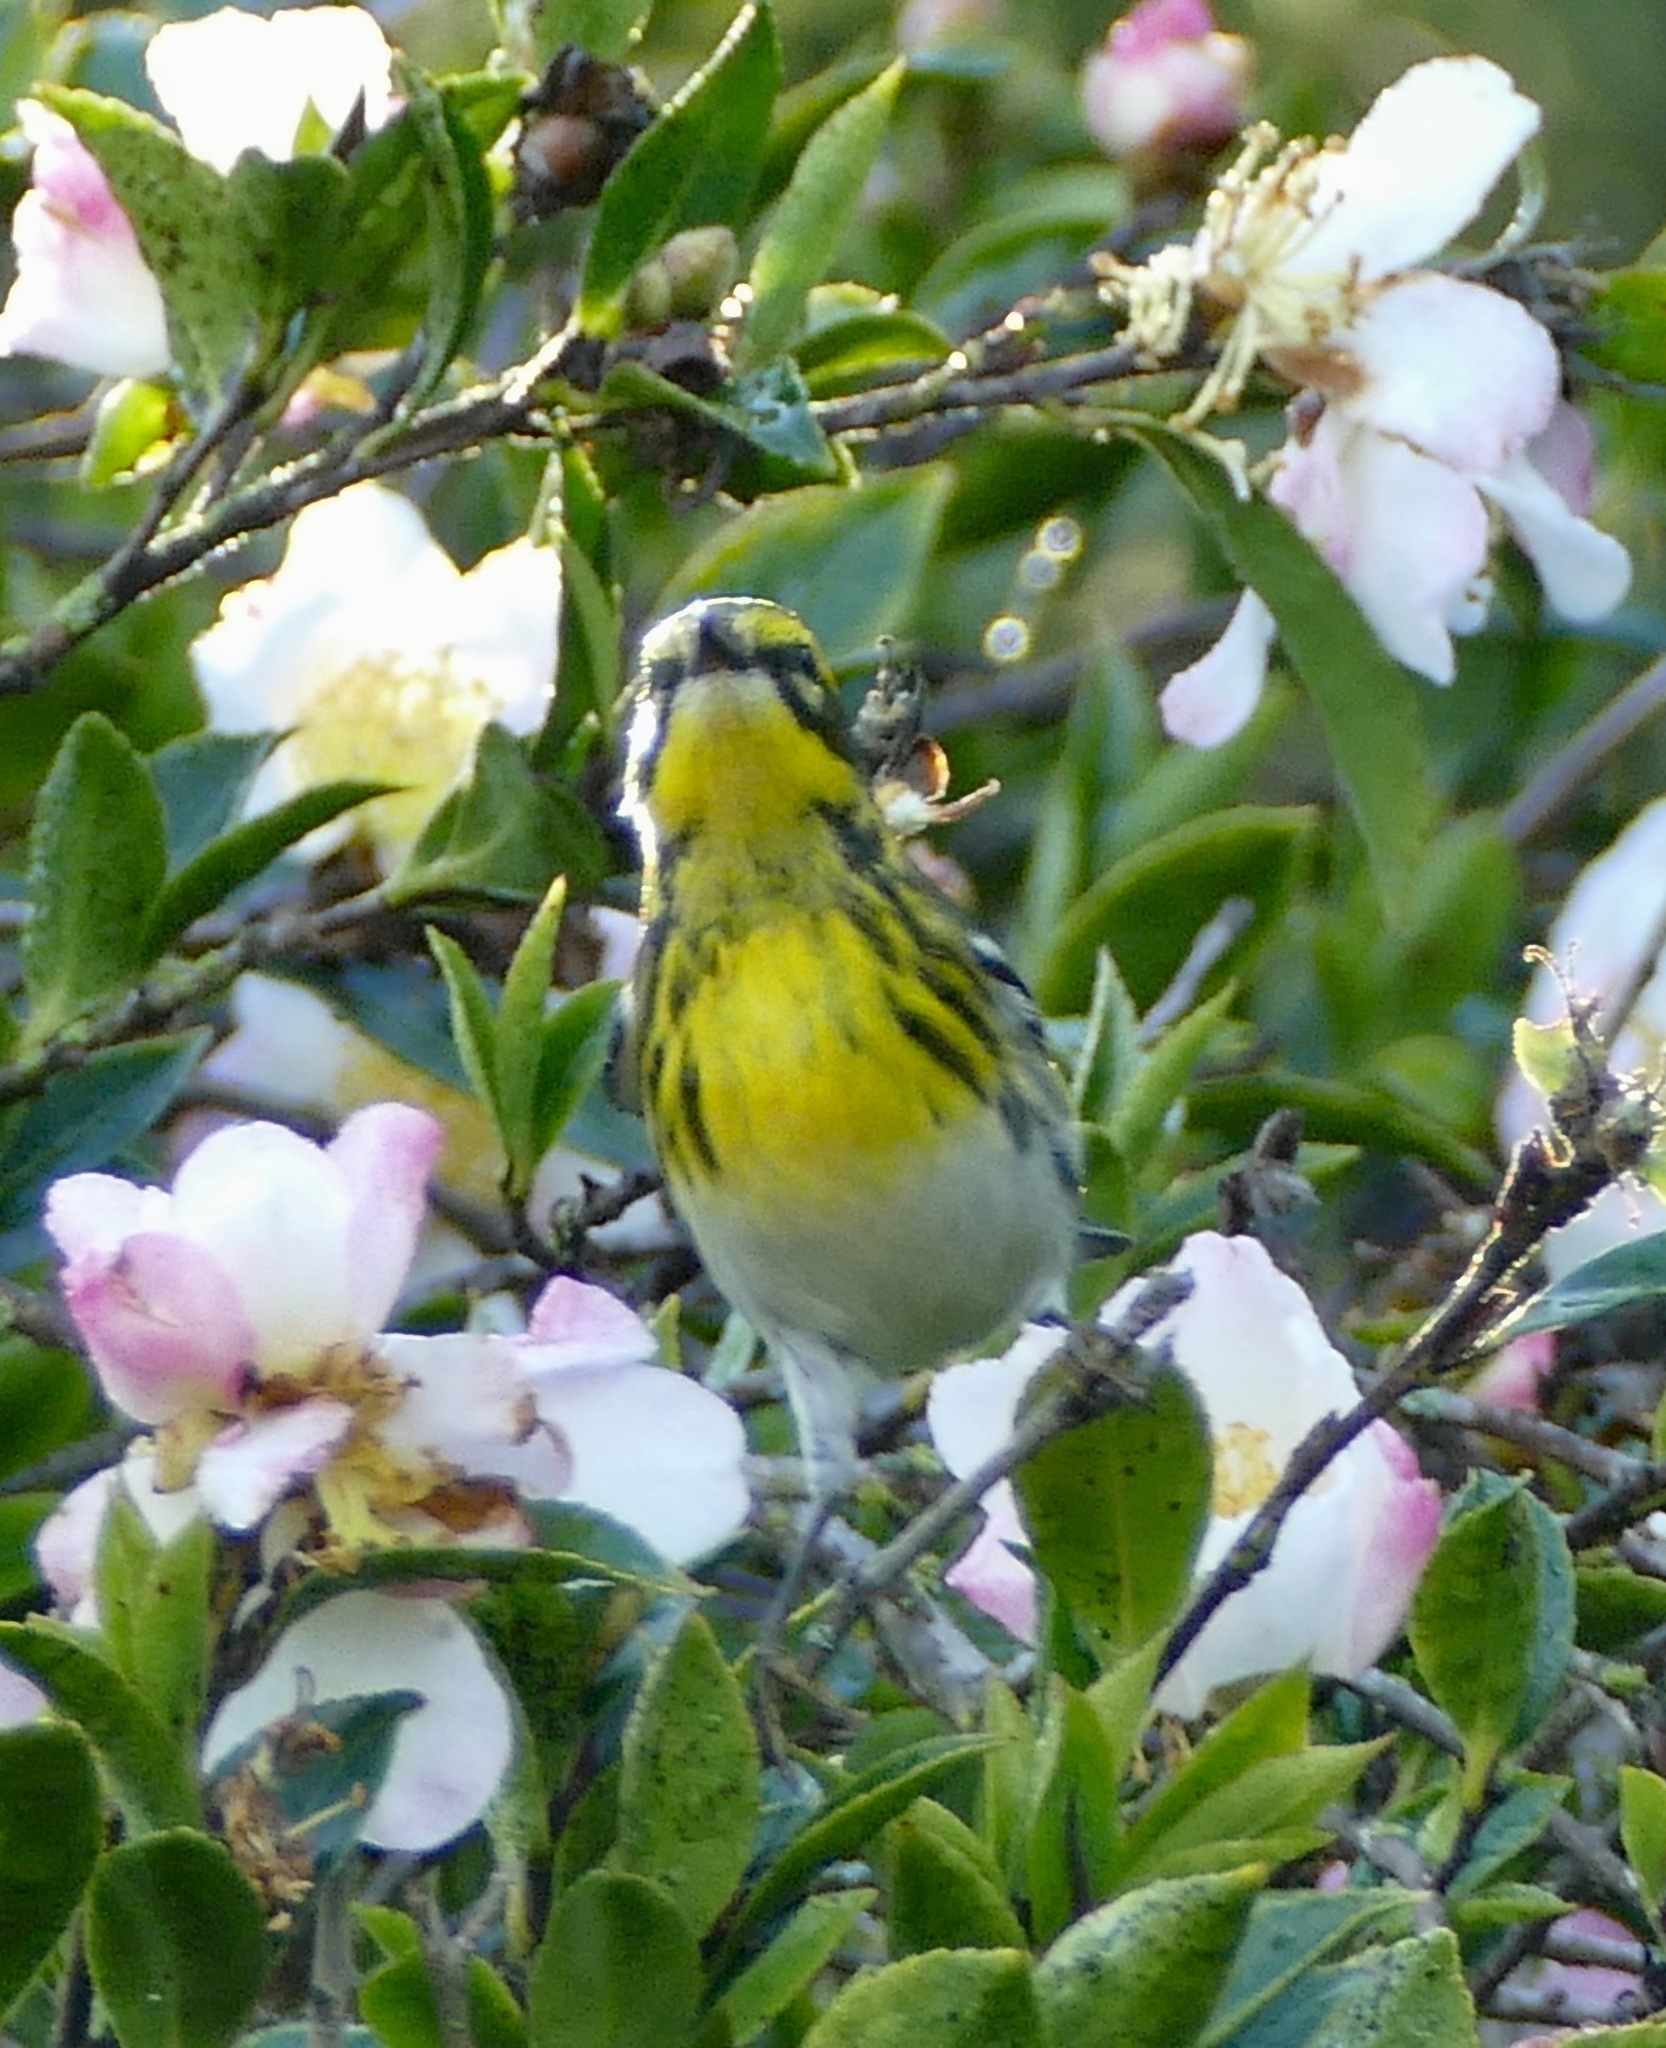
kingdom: Animalia
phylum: Chordata
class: Aves
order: Passeriformes
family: Parulidae
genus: Setophaga
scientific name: Setophaga townsendi
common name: Townsend's warbler
